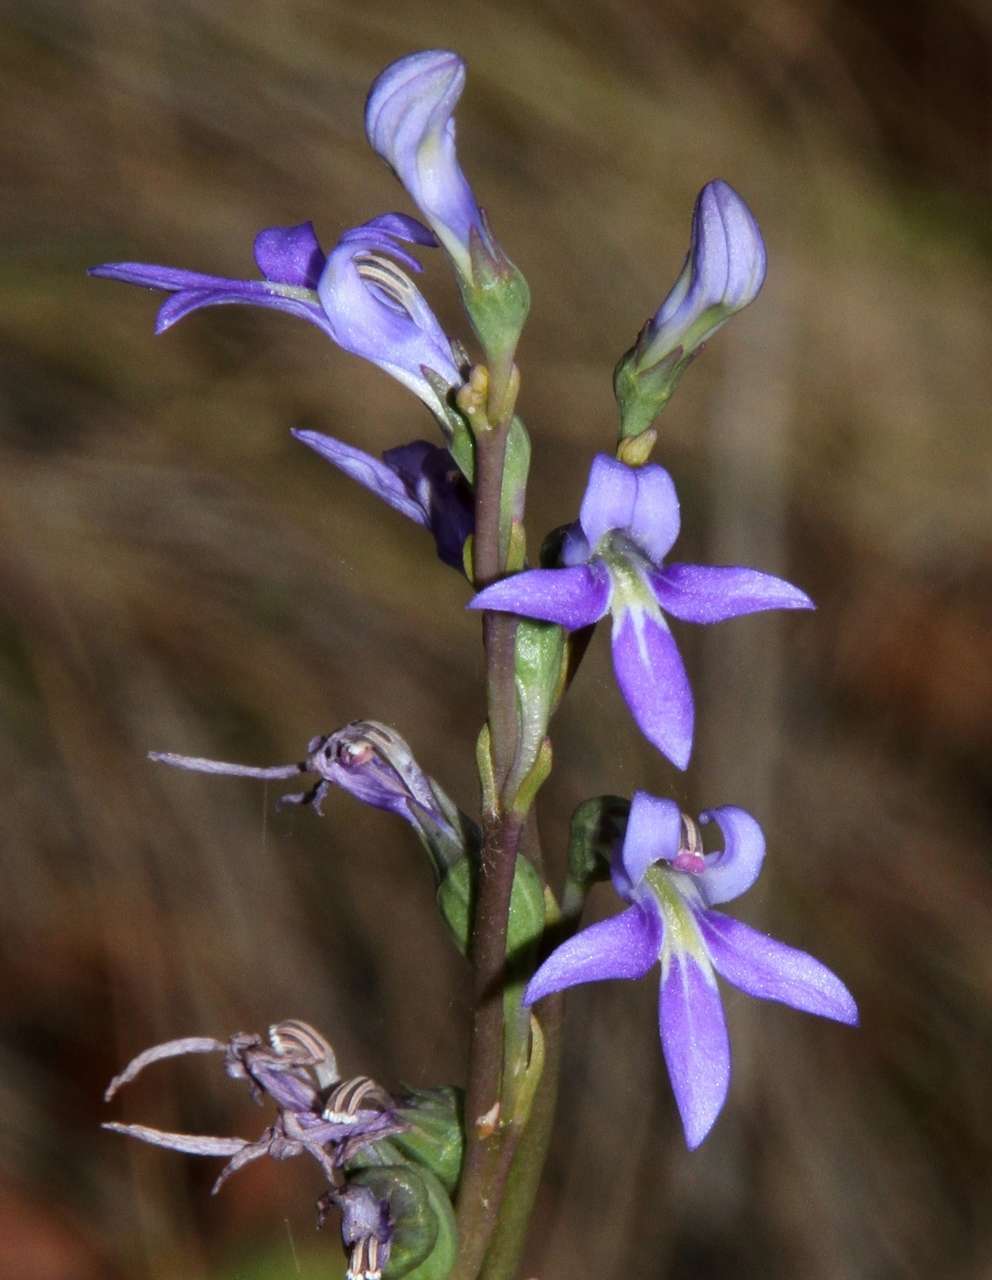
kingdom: Plantae
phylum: Tracheophyta
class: Magnoliopsida
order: Asterales
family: Campanulaceae
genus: Lobelia
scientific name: Lobelia gibbosa
